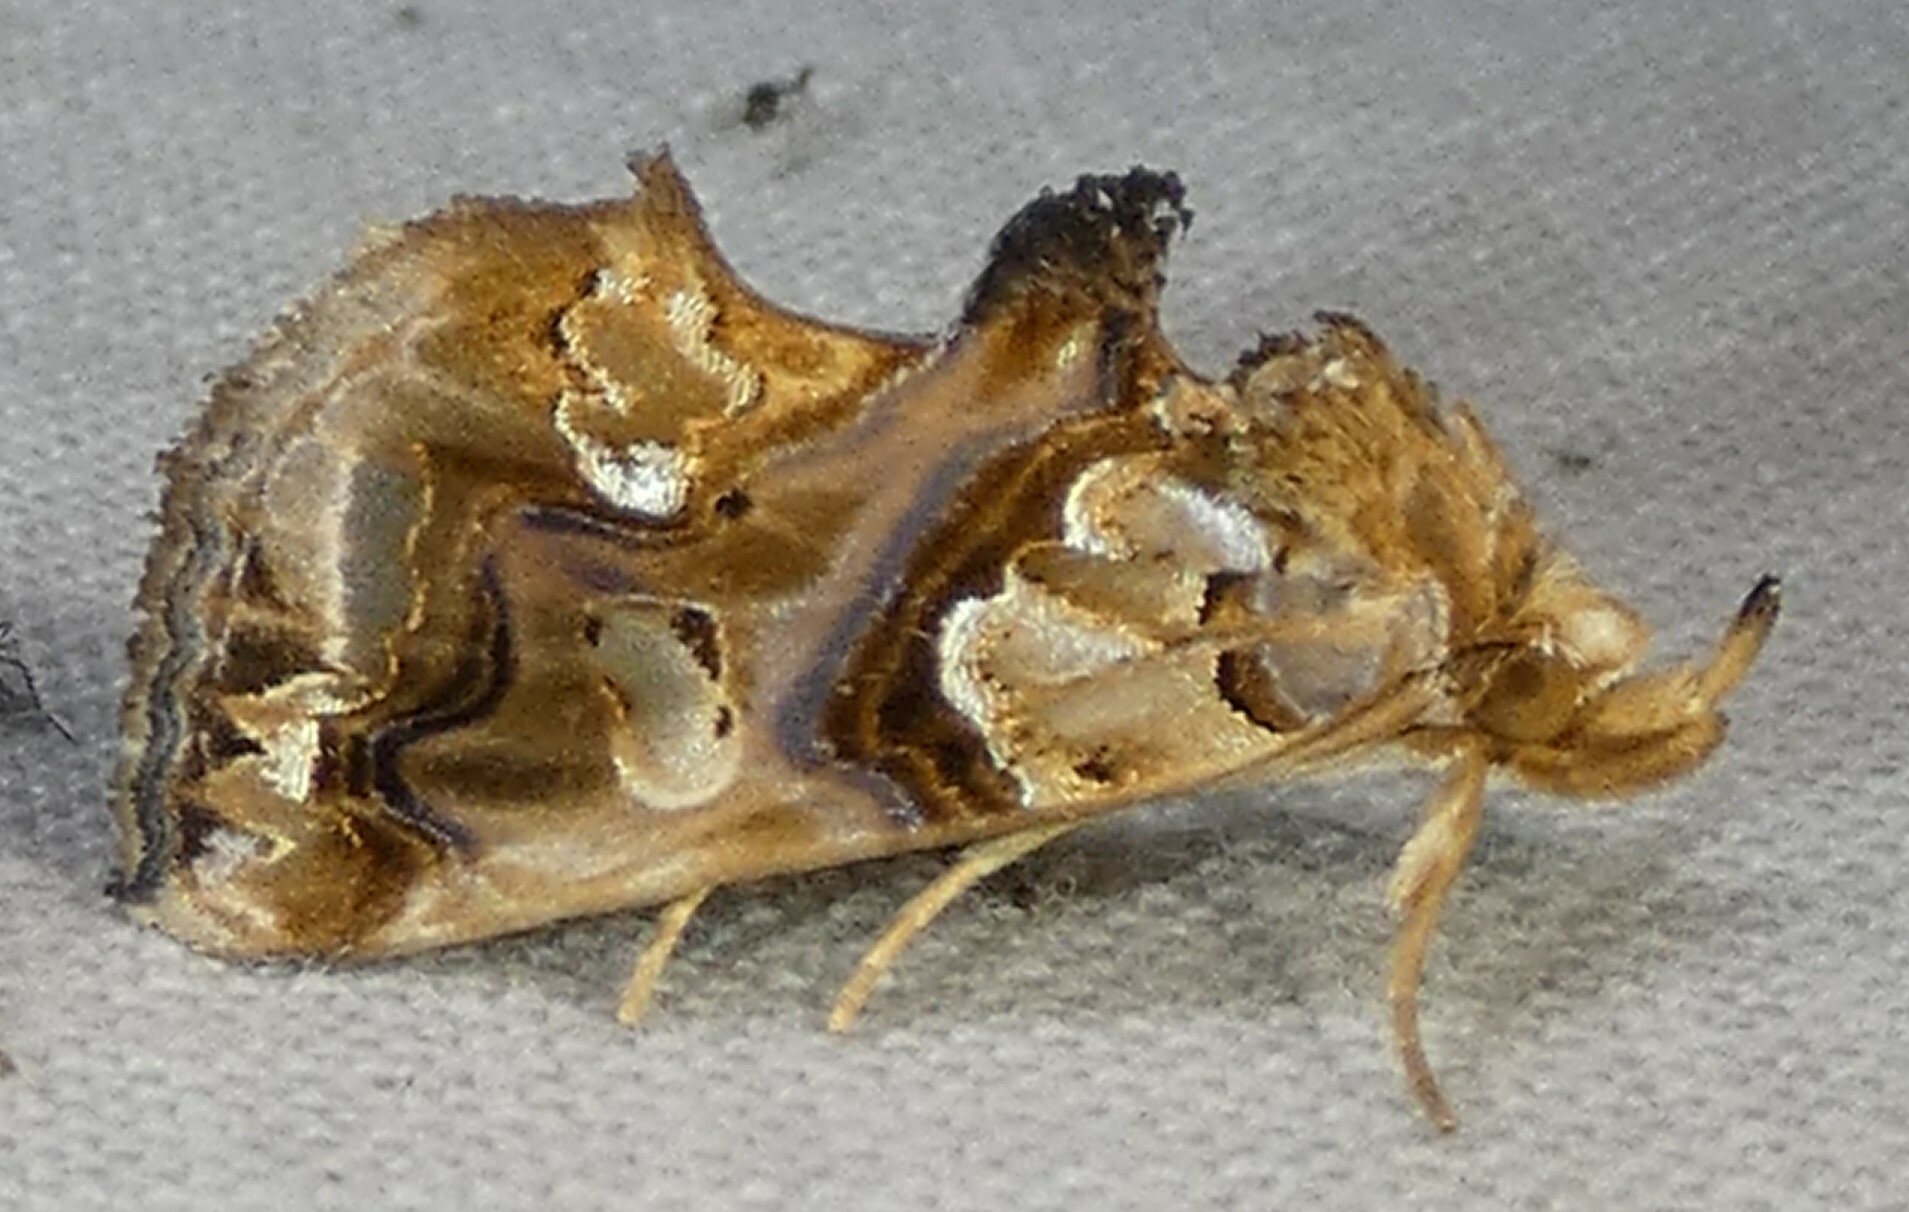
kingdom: Animalia
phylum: Arthropoda
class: Insecta
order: Lepidoptera
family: Erebidae
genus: Plusiodonta
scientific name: Plusiodonta compressipalpis
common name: Moonseed moth
